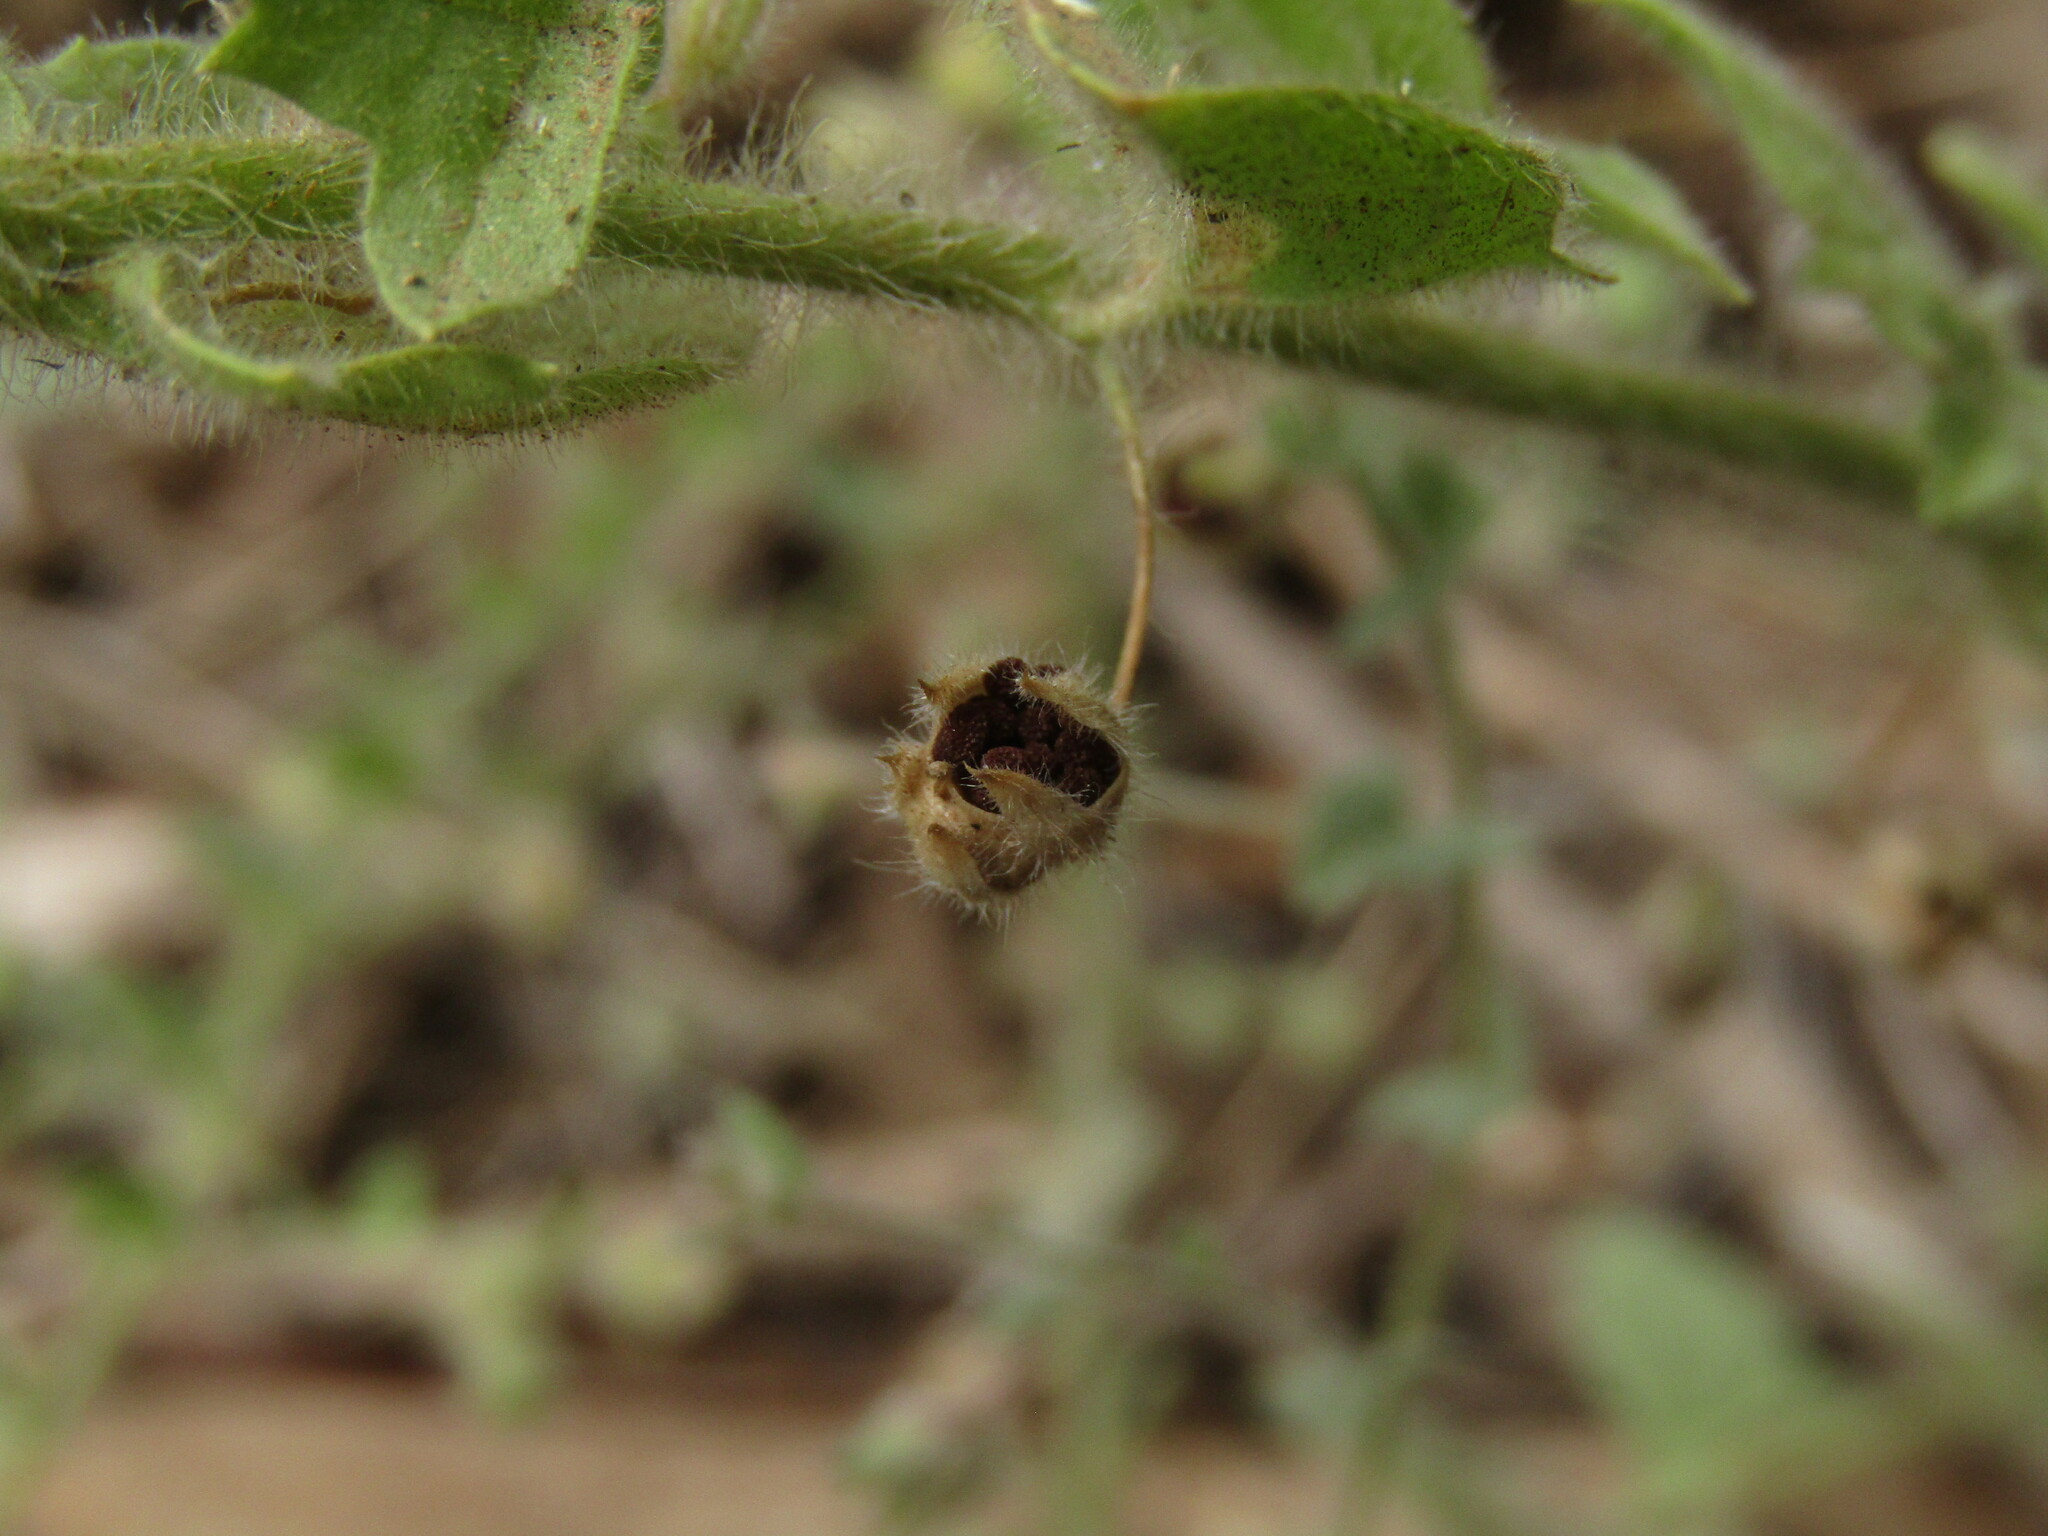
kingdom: Plantae
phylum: Tracheophyta
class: Magnoliopsida
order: Lamiales
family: Plantaginaceae
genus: Kickxia
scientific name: Kickxia elatine
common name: Sharp-leaved fluellen
